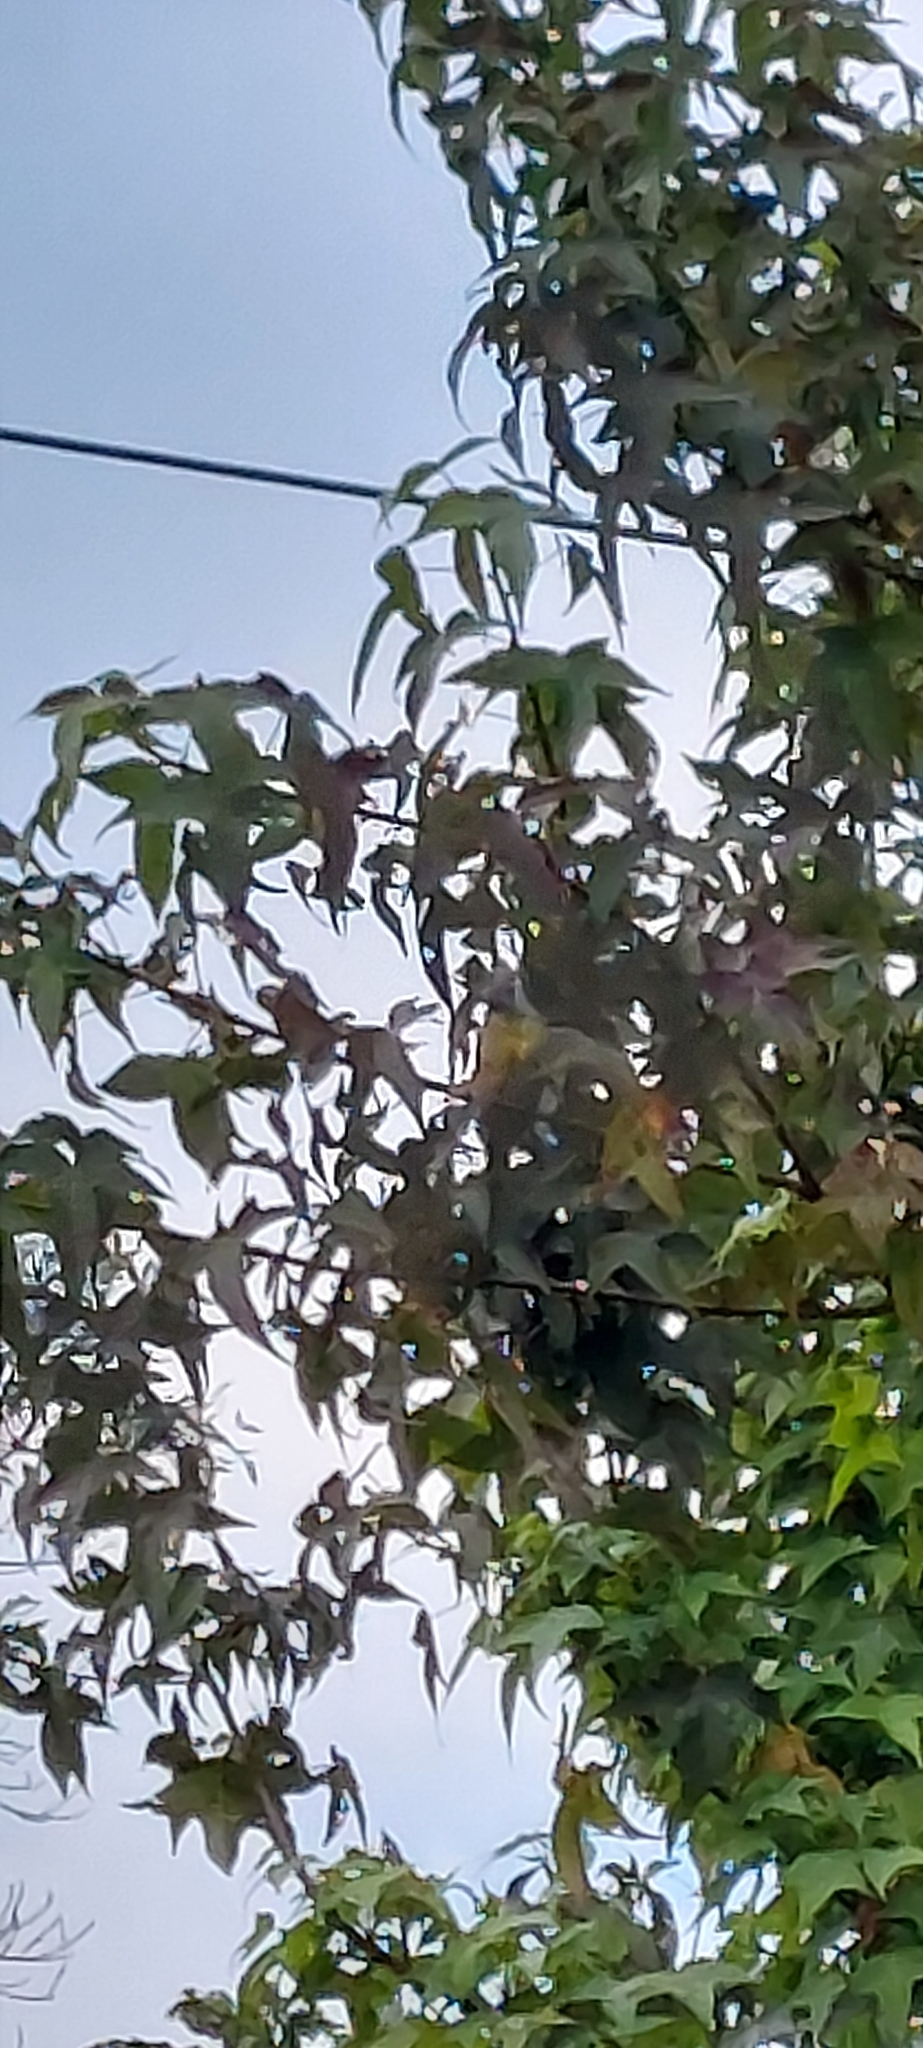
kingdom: Animalia
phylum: Chordata
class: Aves
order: Passeriformes
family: Tyrannidae
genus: Tyrannus
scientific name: Tyrannus melancholicus
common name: Tropical kingbird
